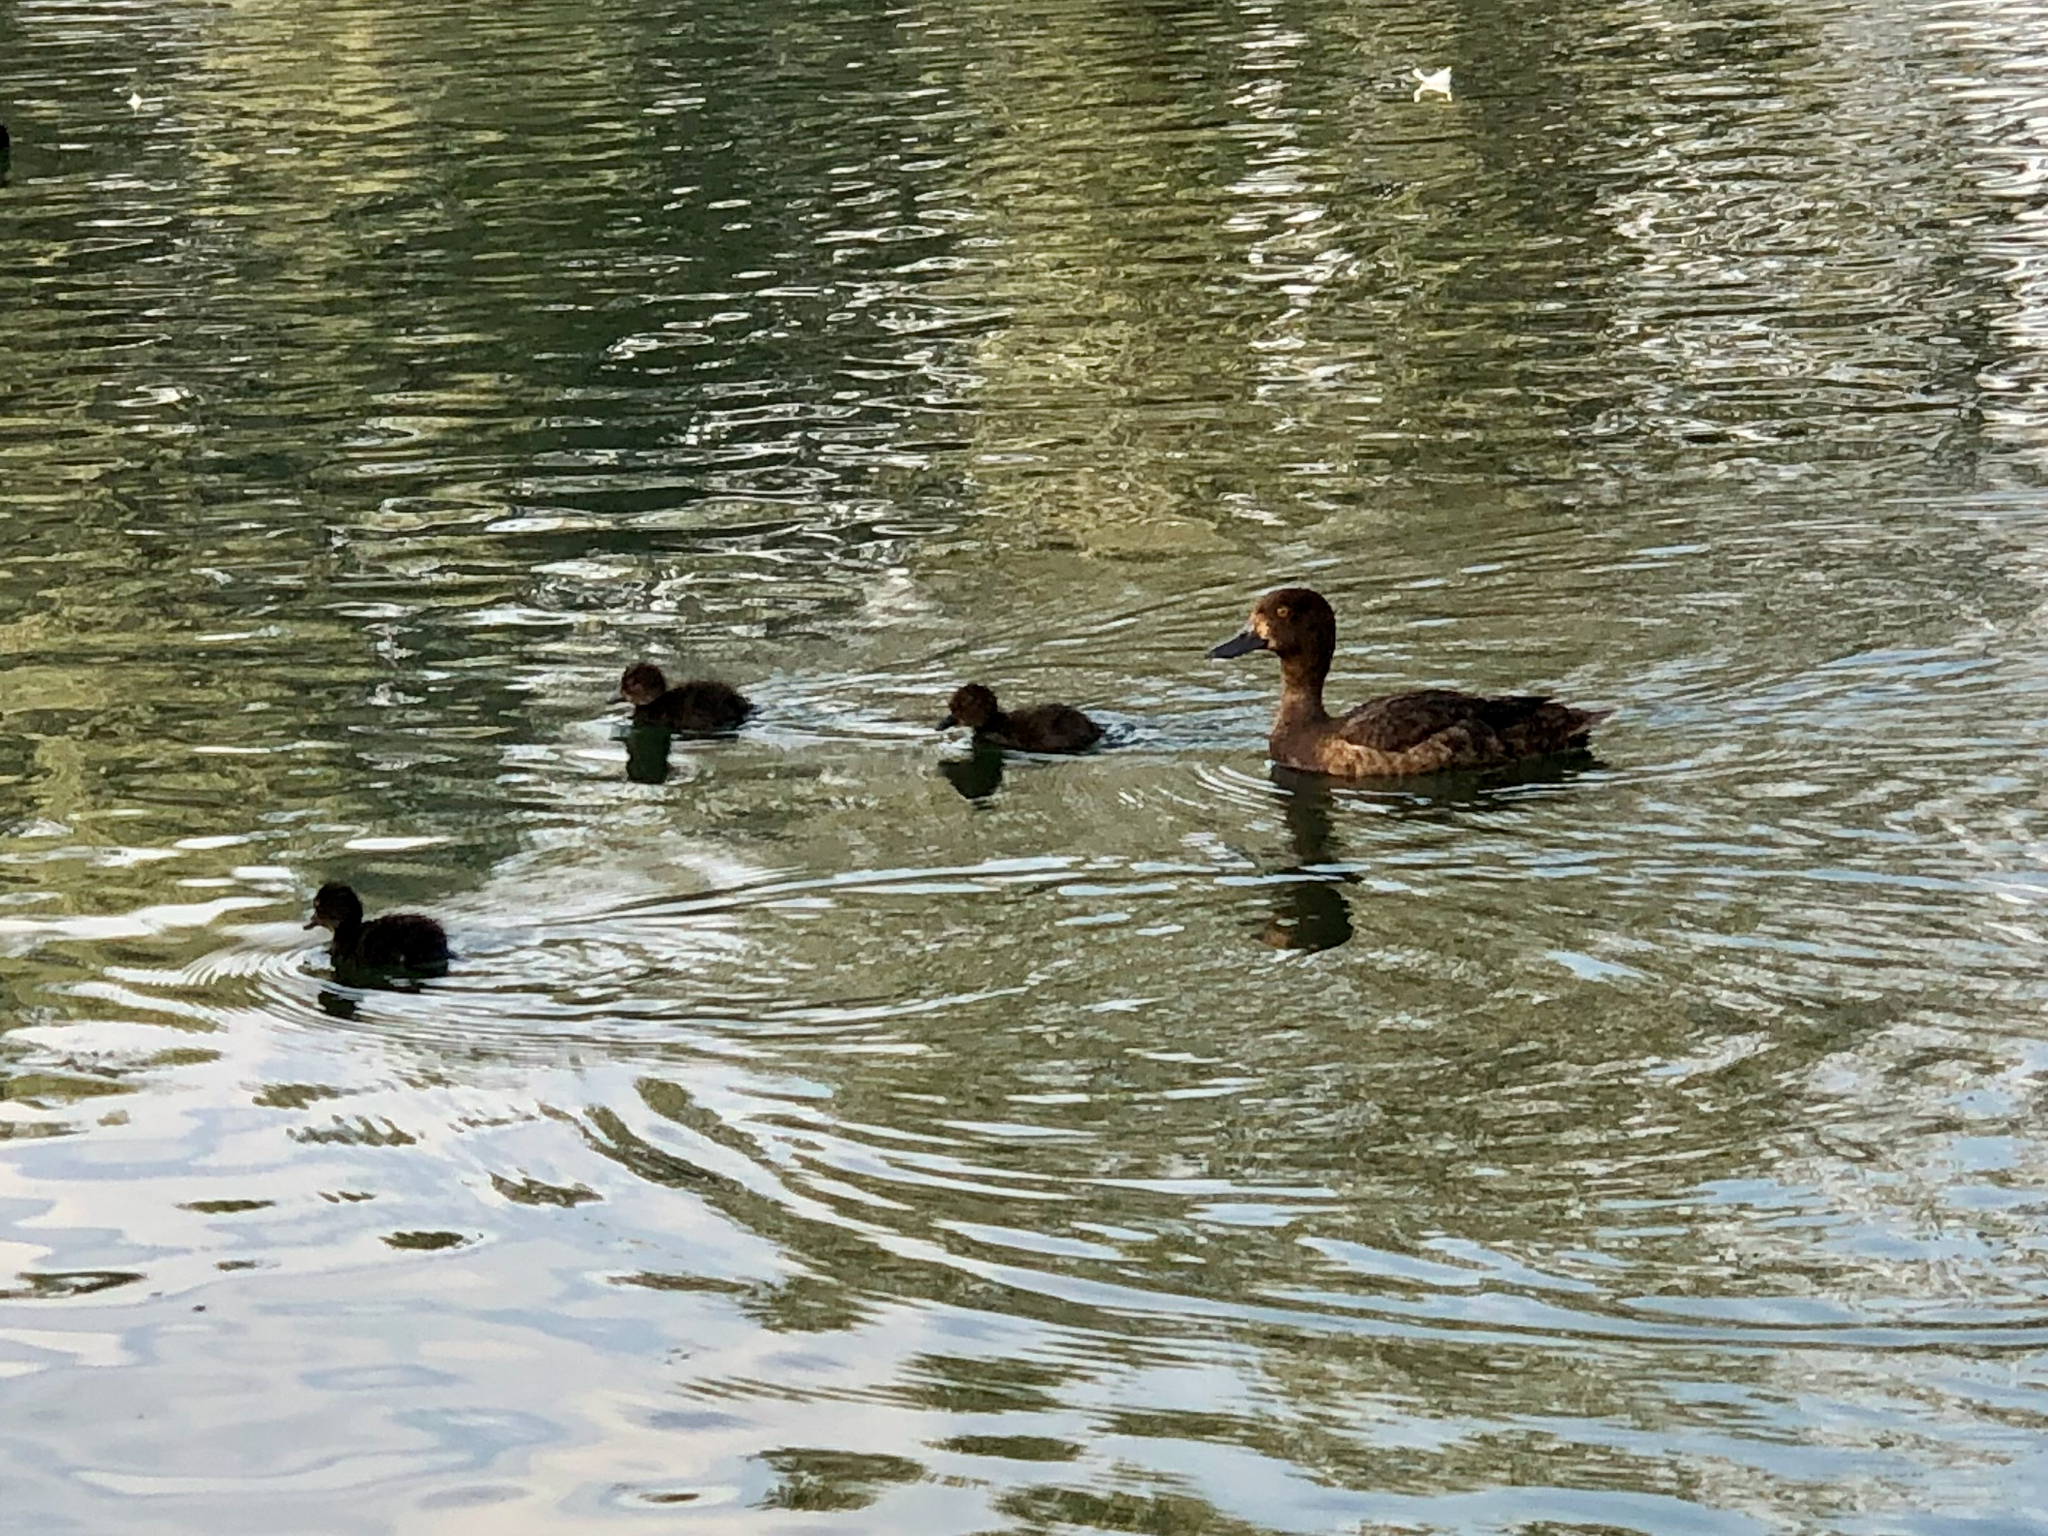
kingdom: Animalia
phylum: Chordata
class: Aves
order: Anseriformes
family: Anatidae
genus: Aythya
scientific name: Aythya fuligula
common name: Tufted duck
